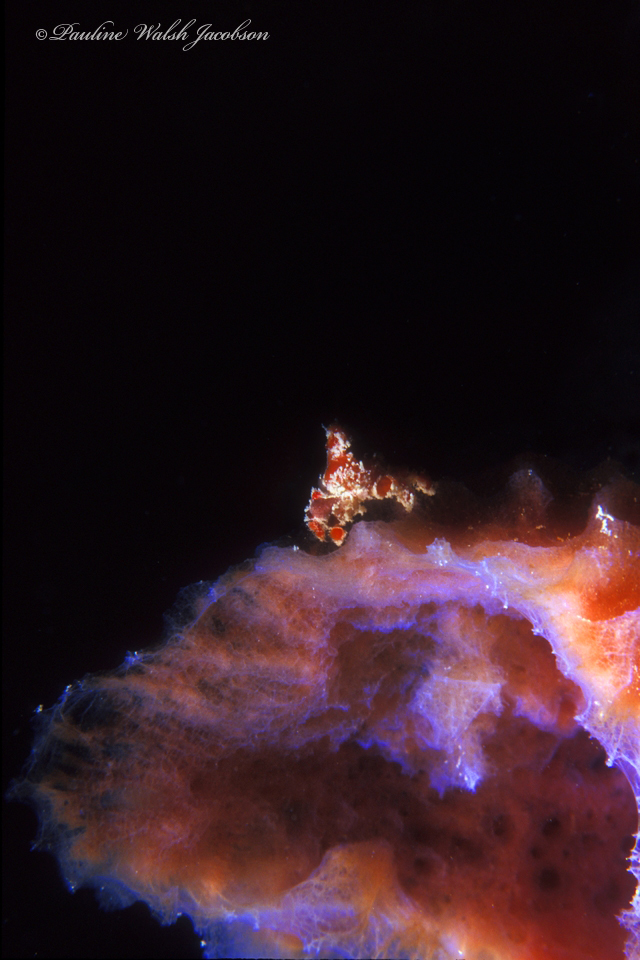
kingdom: Animalia
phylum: Arthropoda
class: Malacostraca
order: Decapoda
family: Epialtidae
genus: Pelia
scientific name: Pelia mutica
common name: Cryptic teardrop crab
